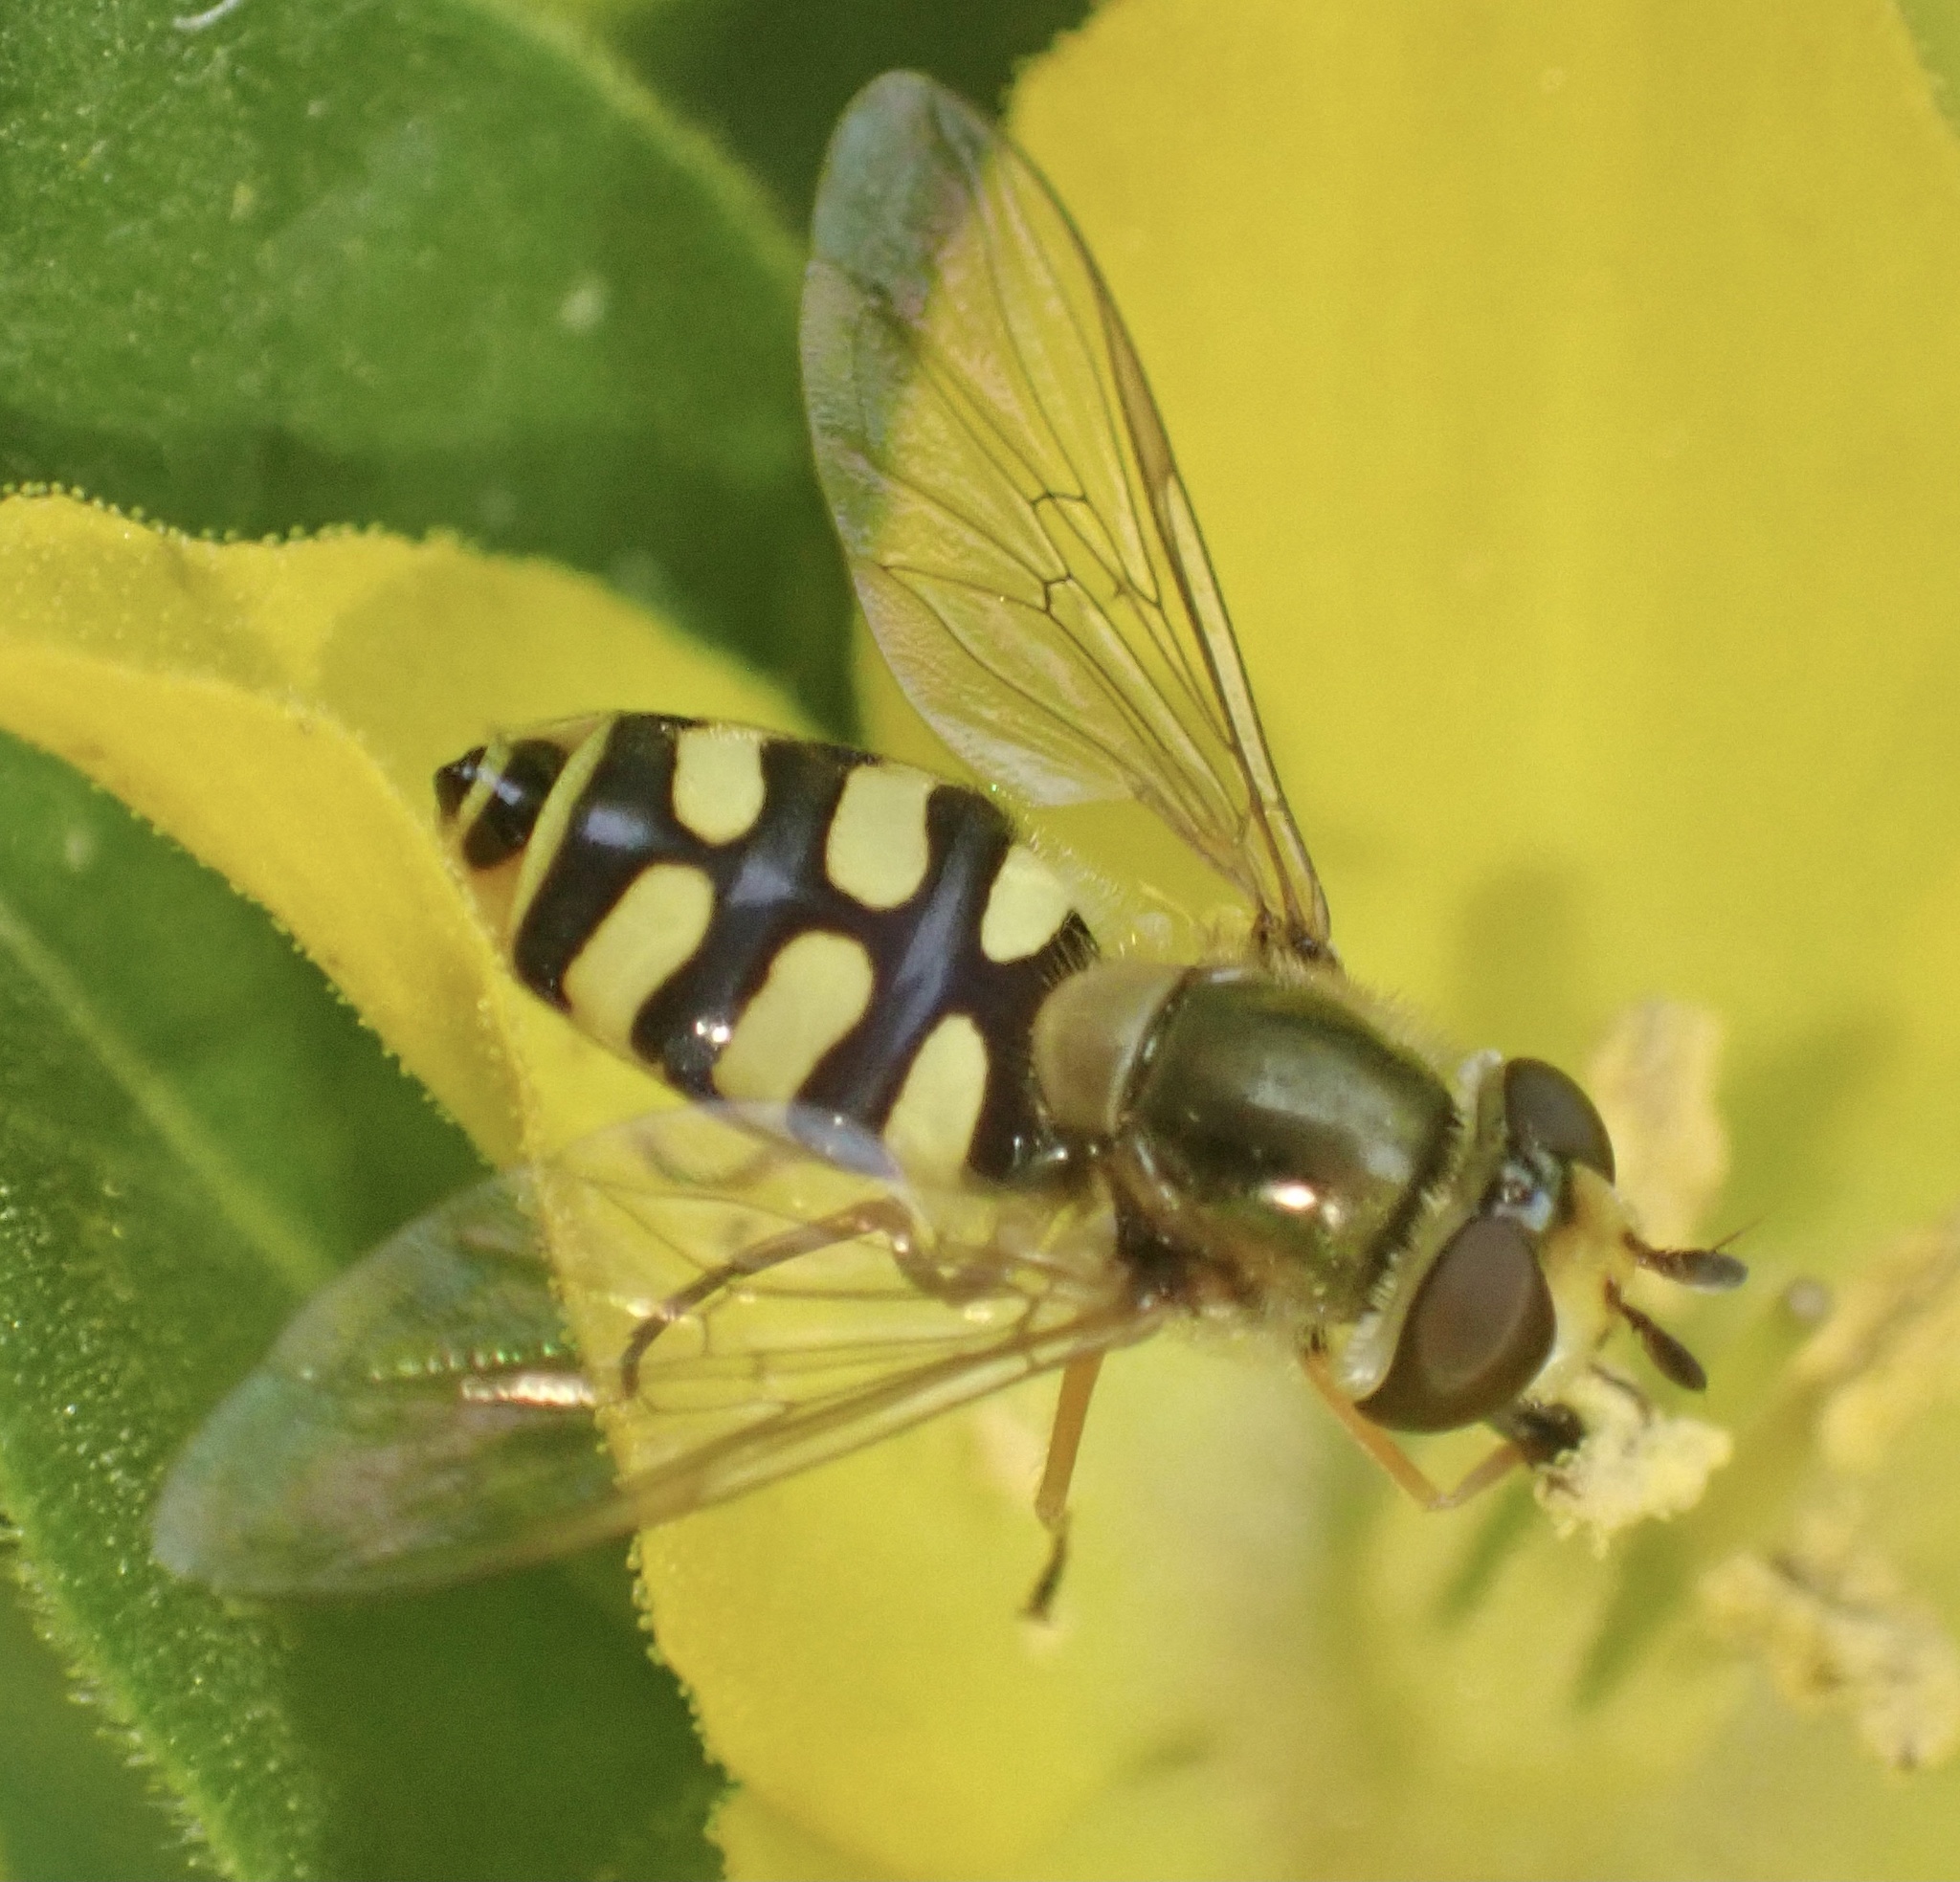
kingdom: Animalia
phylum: Arthropoda
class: Insecta
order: Diptera
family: Syrphidae
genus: Eupeodes
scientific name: Eupeodes corollae
